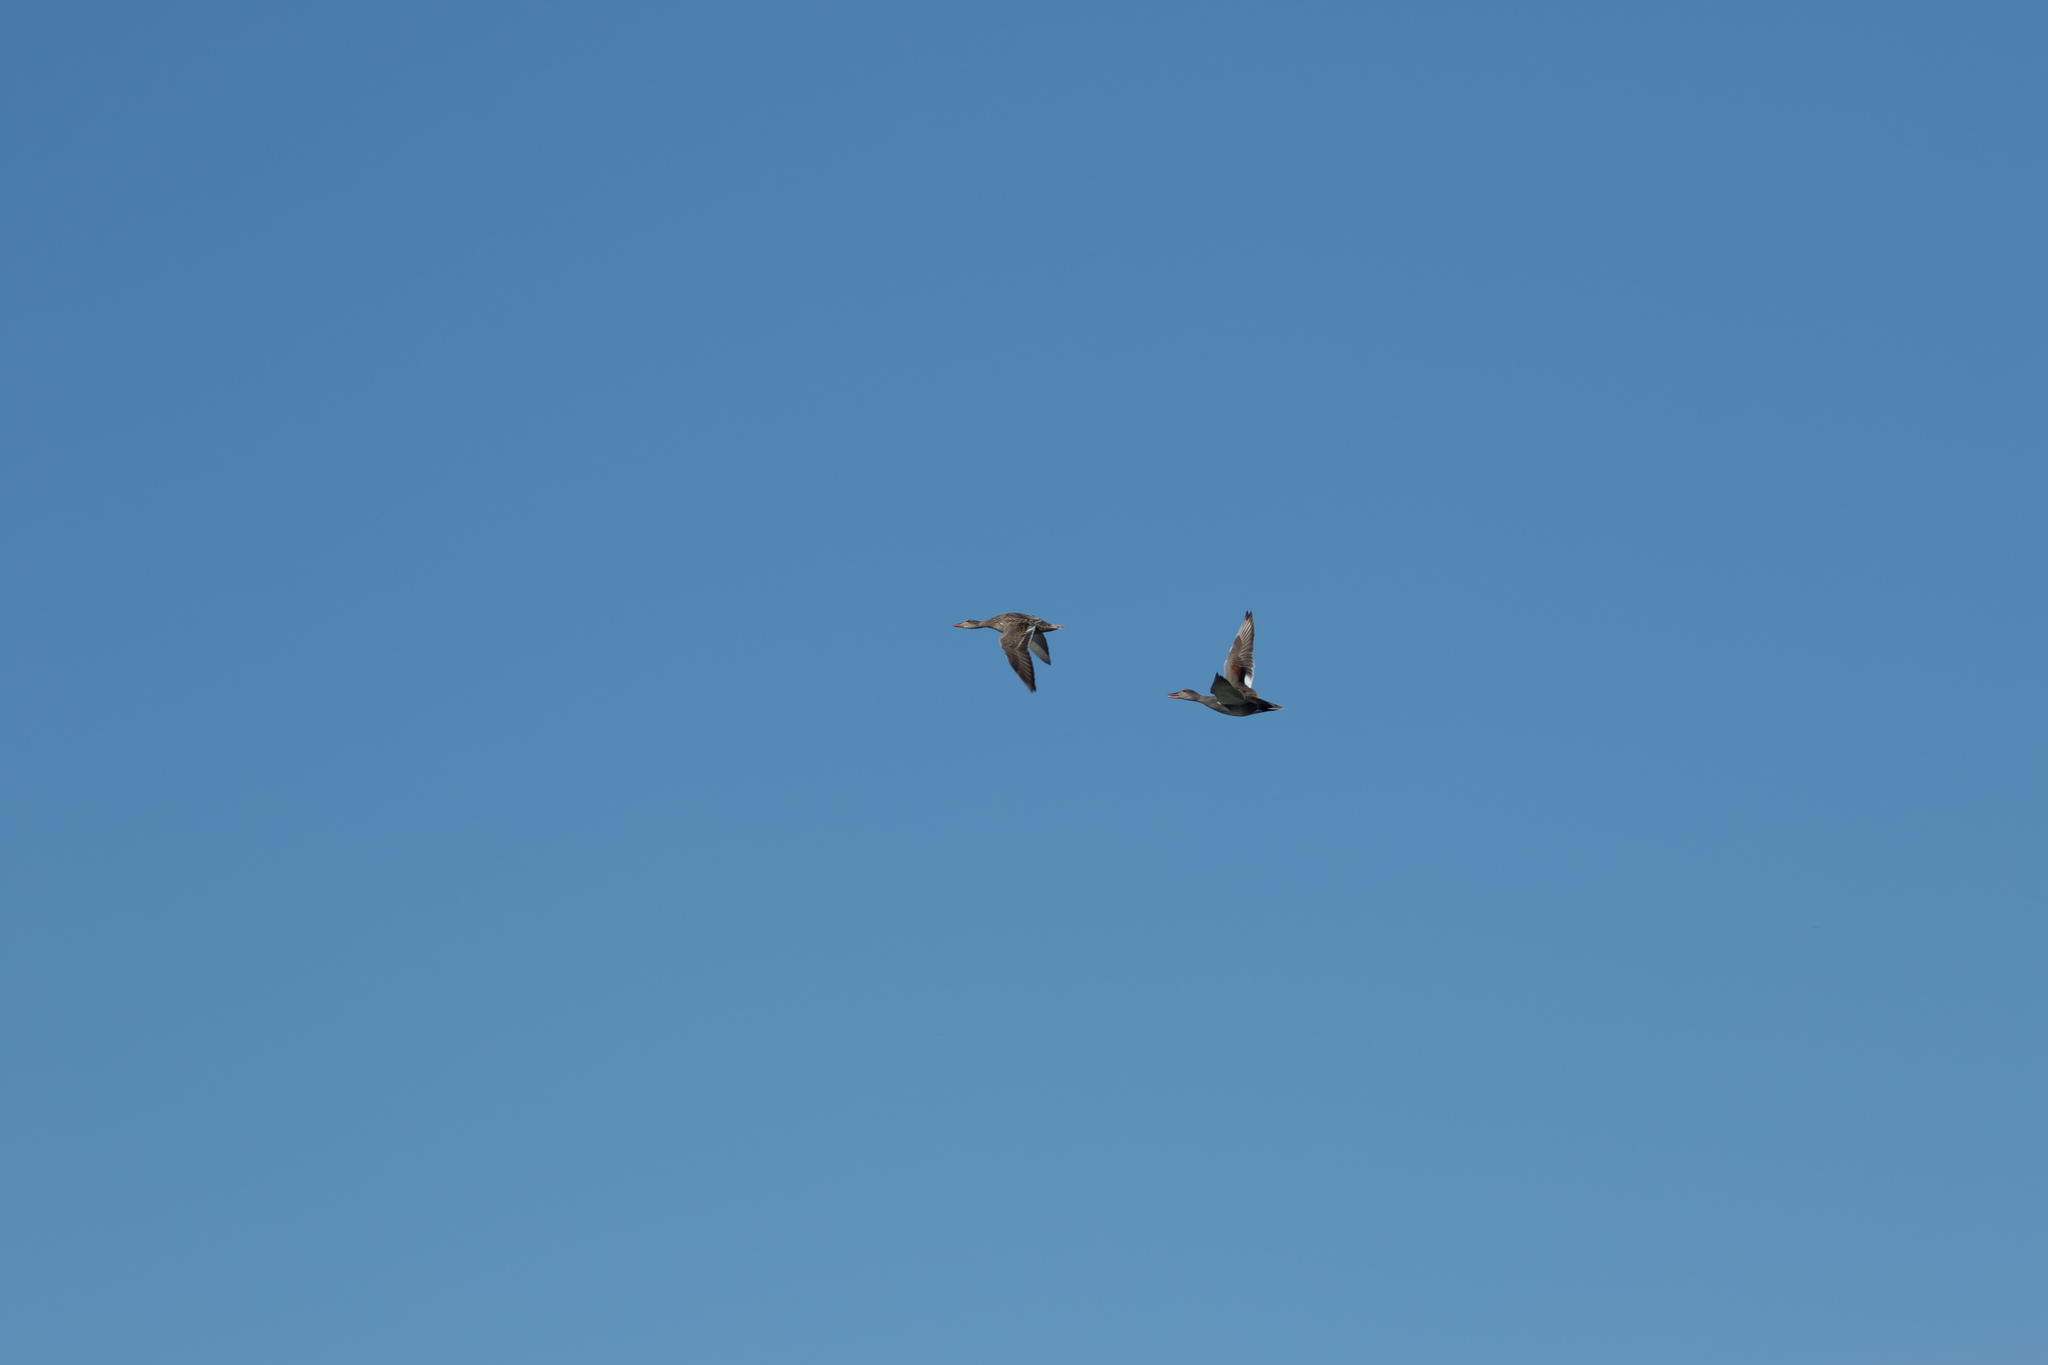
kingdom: Animalia
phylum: Chordata
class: Aves
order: Anseriformes
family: Anatidae
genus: Mareca
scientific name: Mareca strepera
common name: Gadwall
